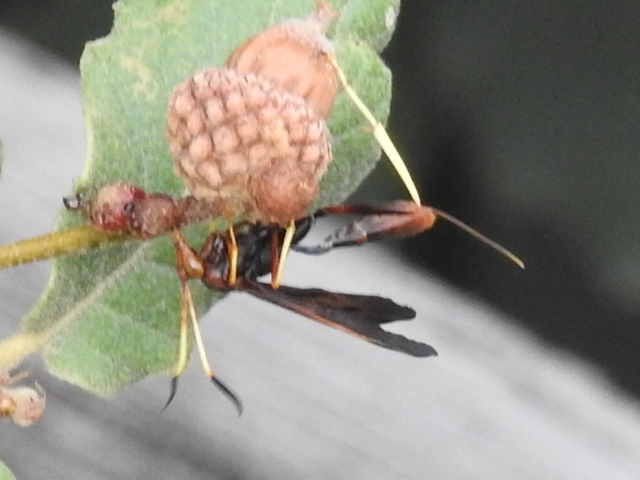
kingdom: Animalia
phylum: Arthropoda
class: Insecta
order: Hymenoptera
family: Ichneumonidae
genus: Agathilla
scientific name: Agathilla
